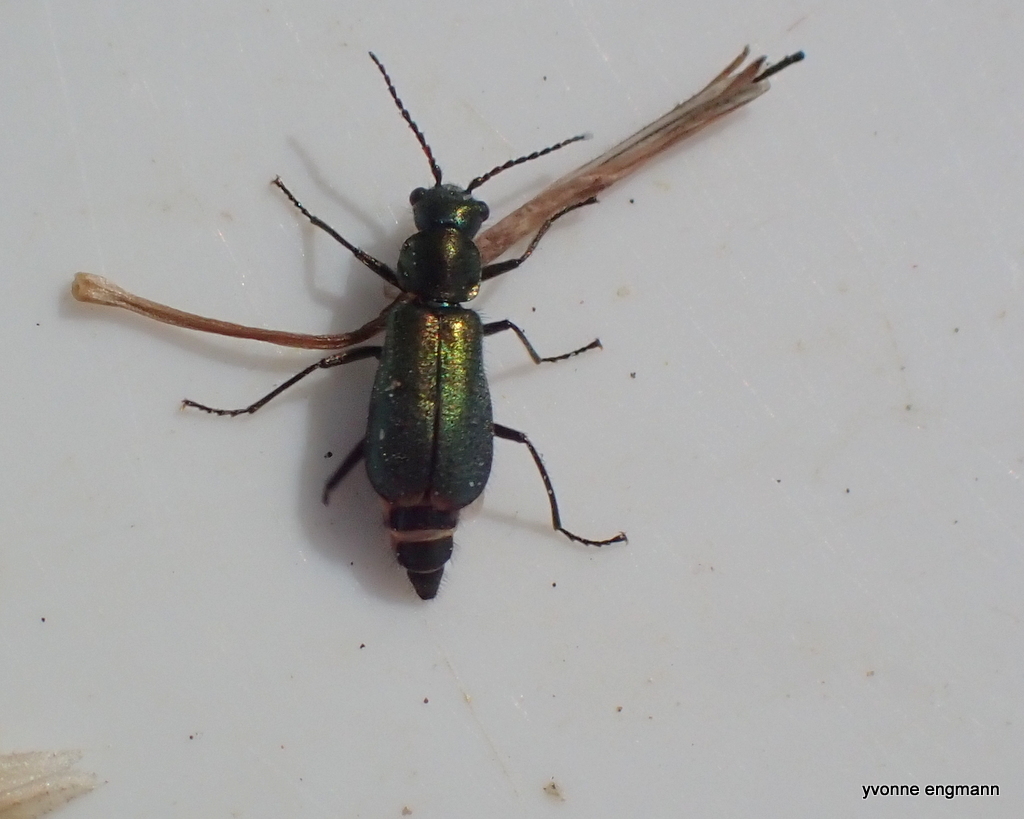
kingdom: Animalia
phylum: Arthropoda
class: Insecta
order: Coleoptera
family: Malachiidae
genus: Cordylepherus
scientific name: Cordylepherus viridis
